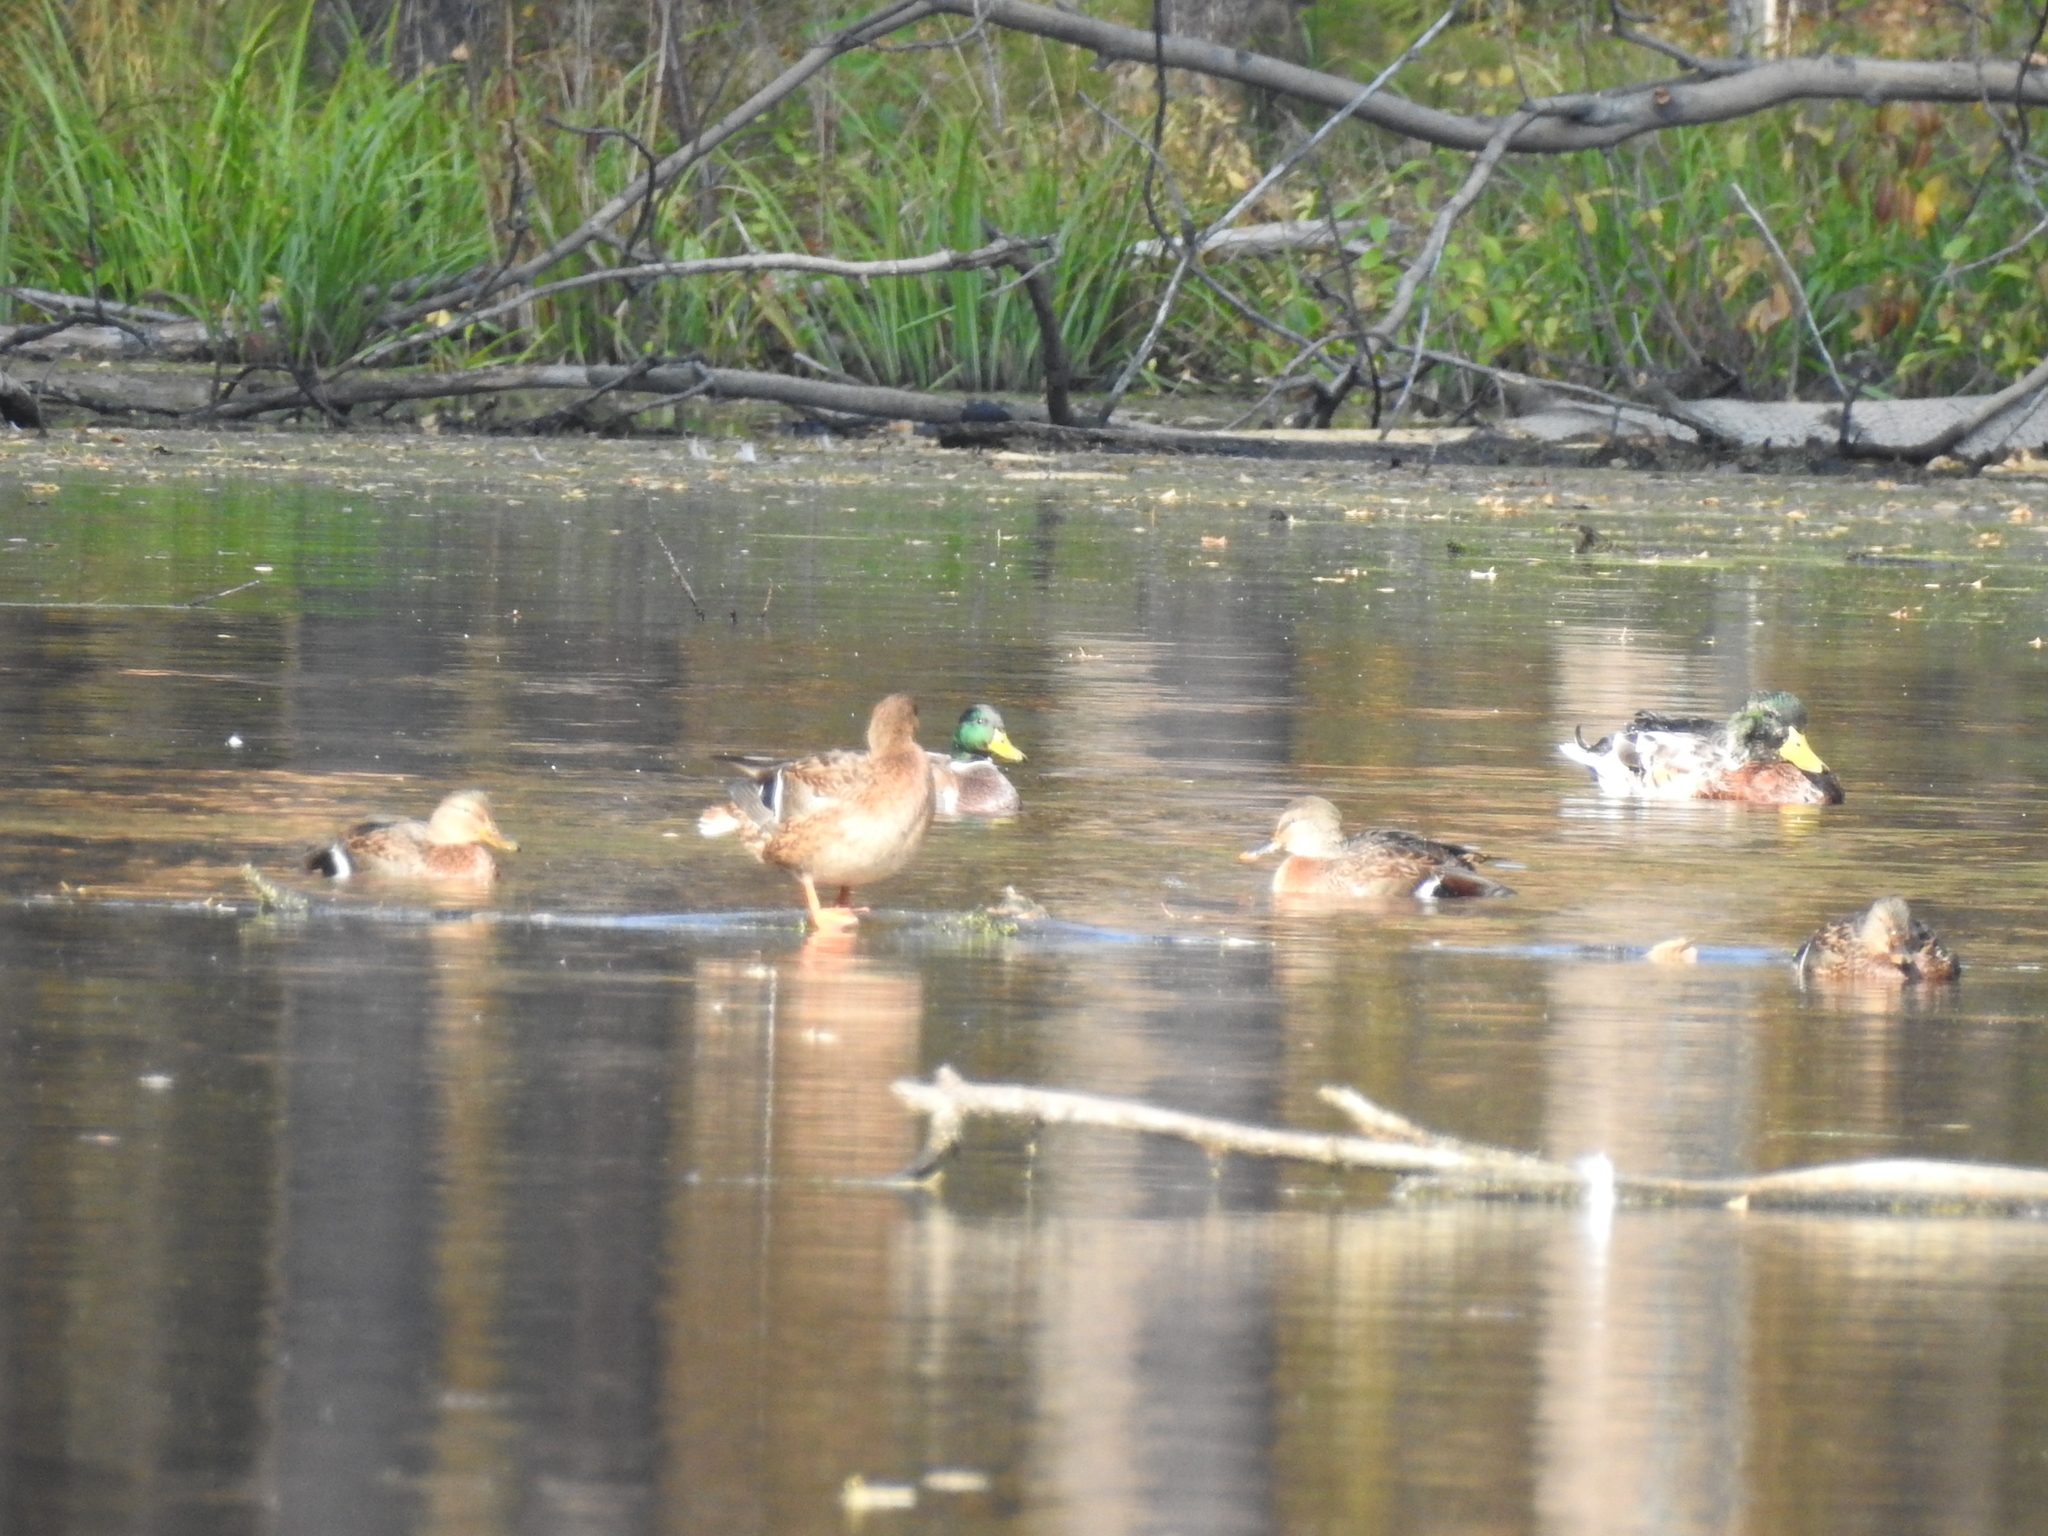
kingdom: Animalia
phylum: Chordata
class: Aves
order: Anseriformes
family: Anatidae
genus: Anas
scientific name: Anas platyrhynchos
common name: Mallard
